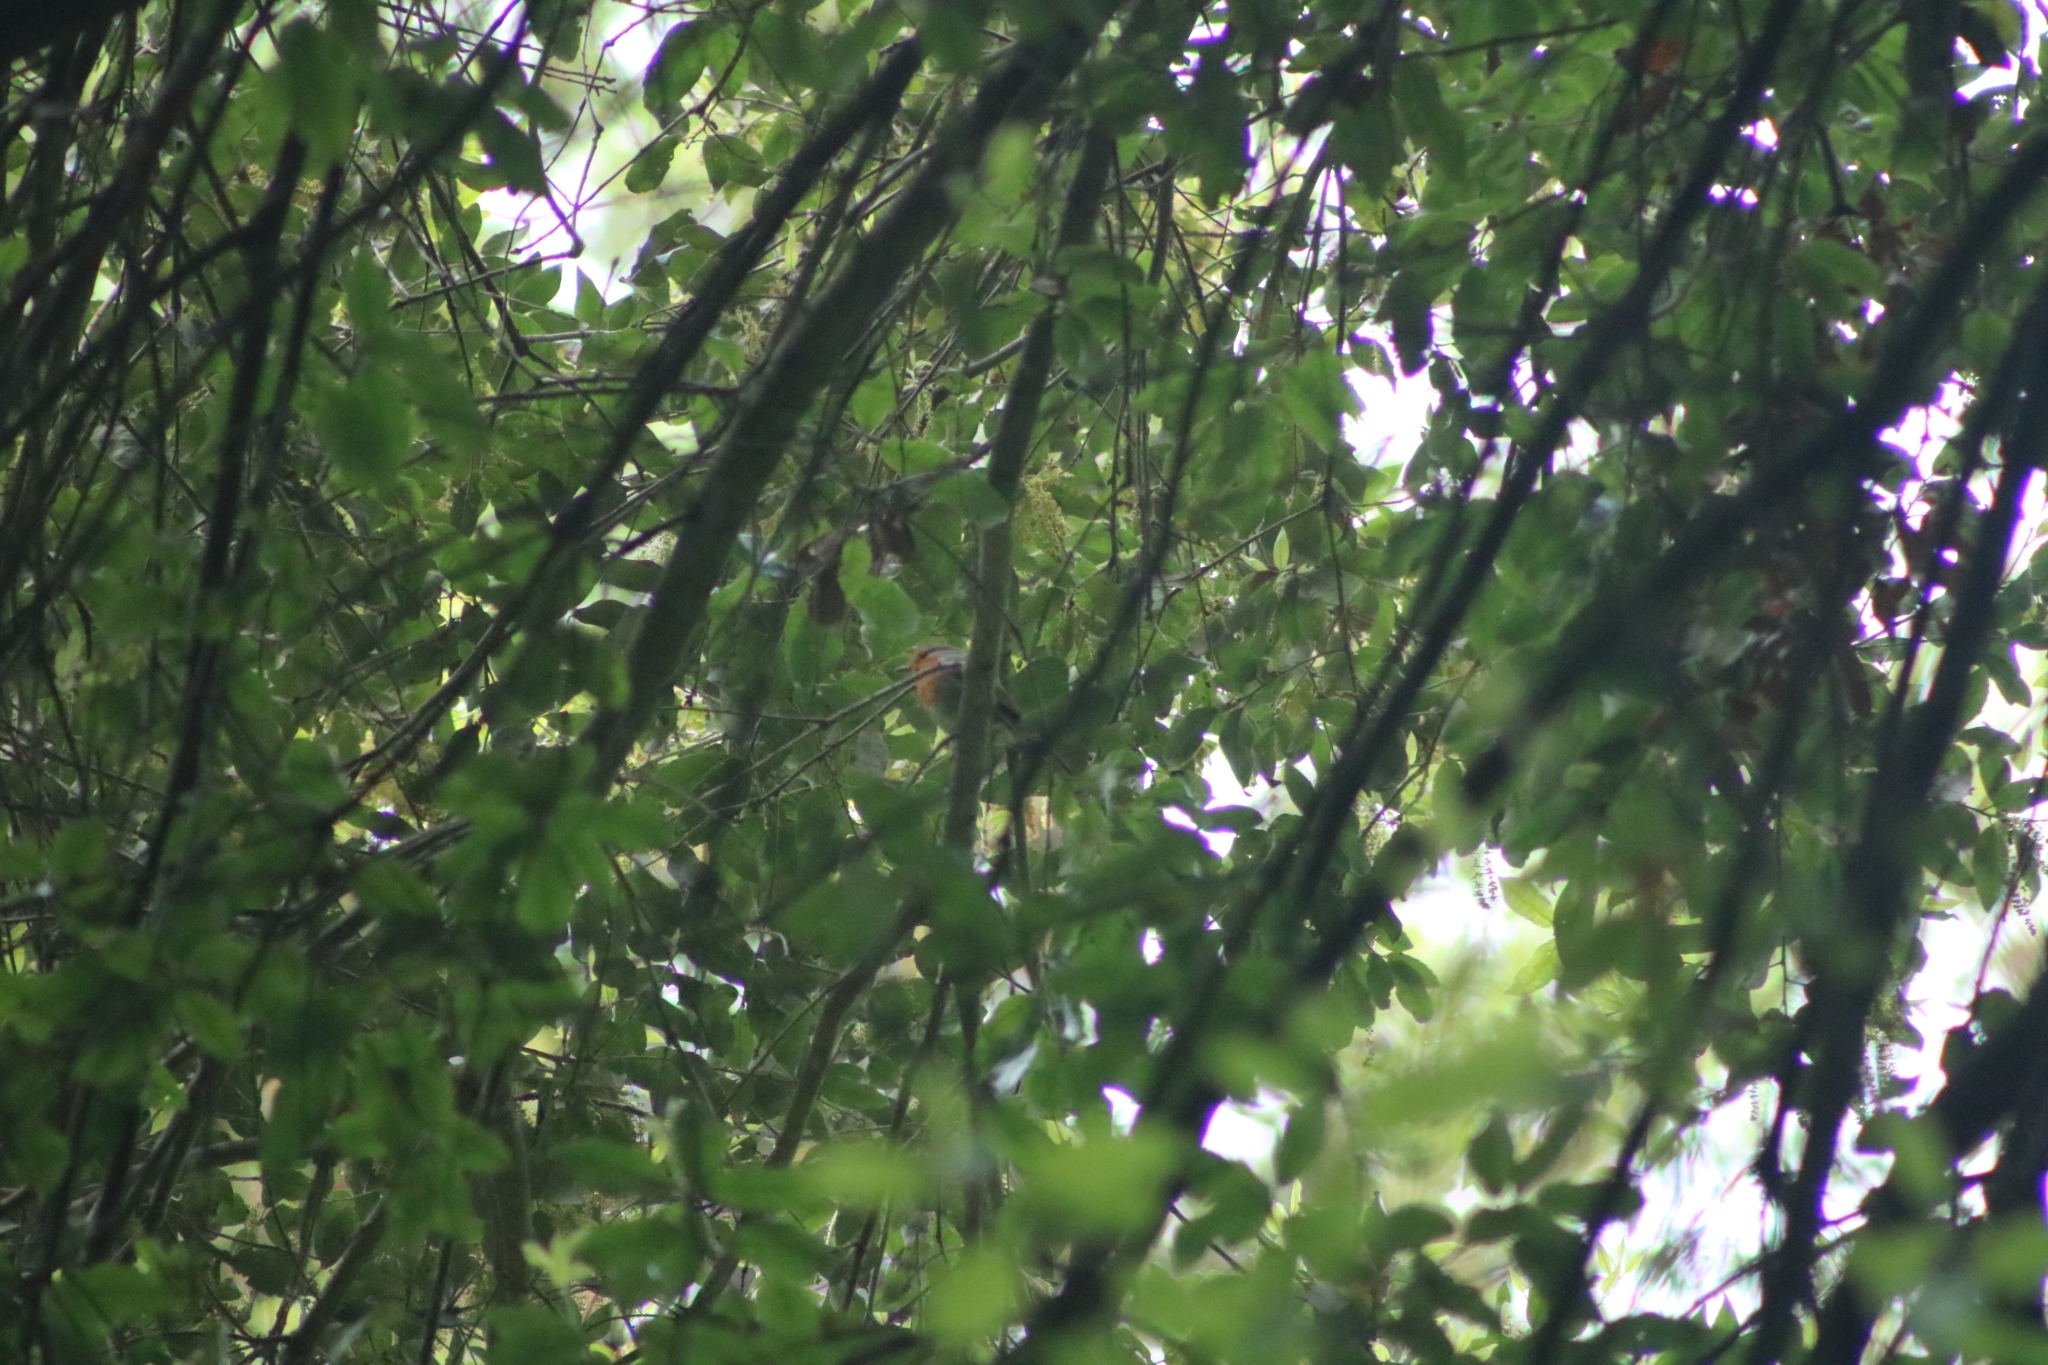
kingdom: Animalia
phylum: Chordata
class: Aves
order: Passeriformes
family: Muscicapidae
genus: Erithacus
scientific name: Erithacus rubecula
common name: European robin
